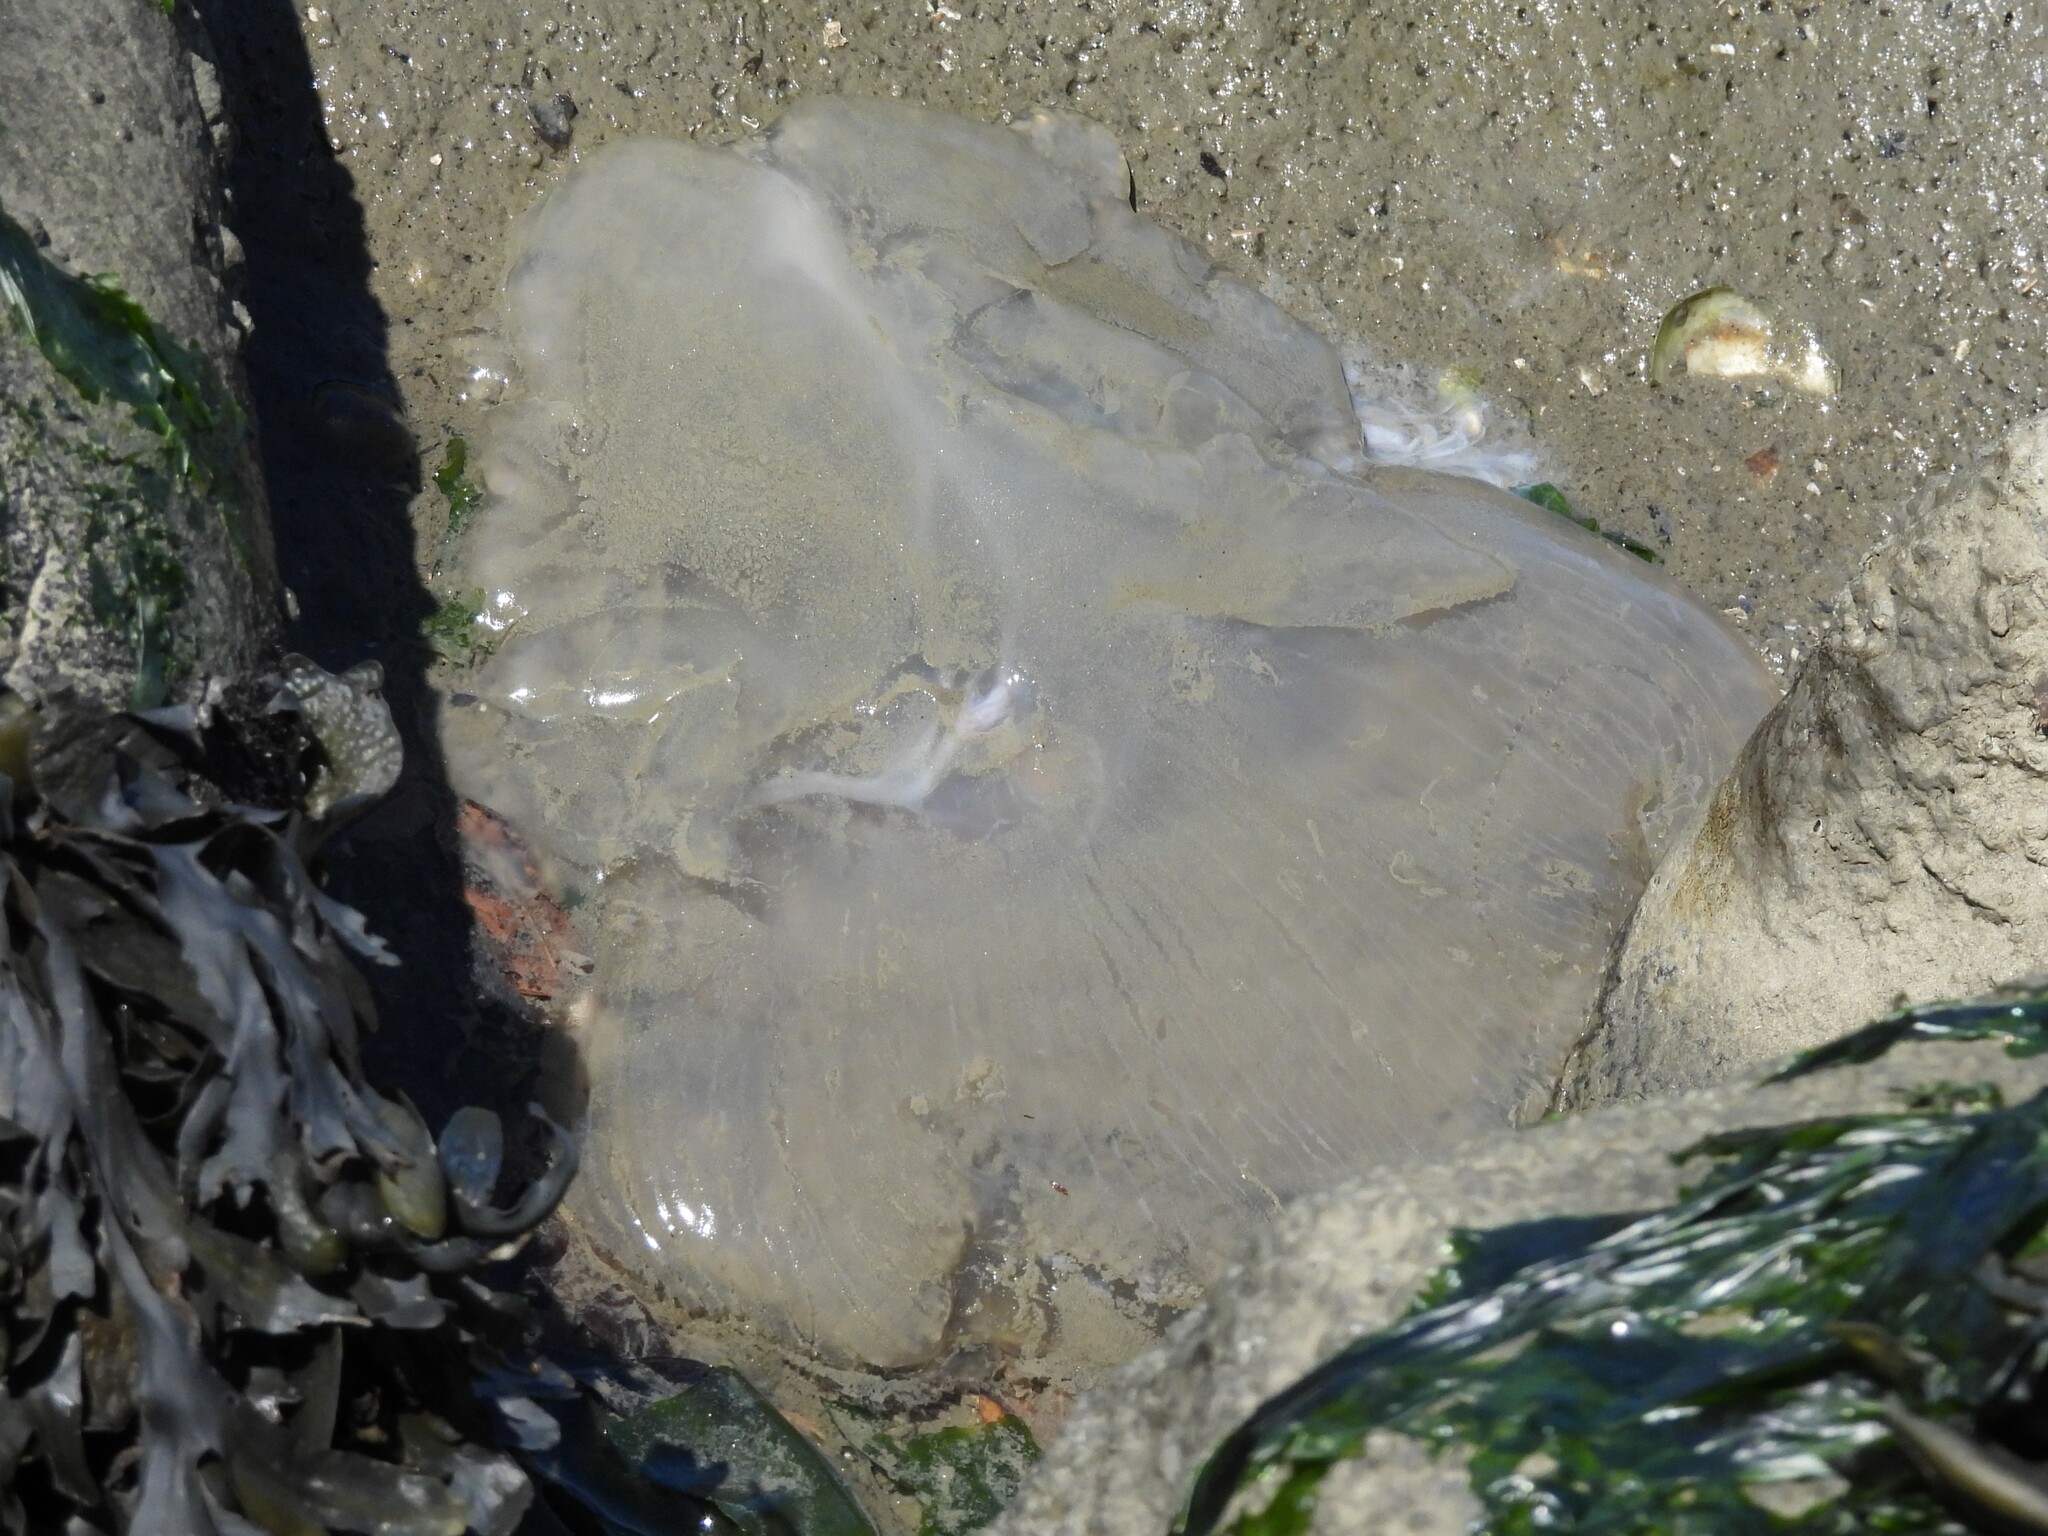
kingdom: Animalia
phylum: Cnidaria
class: Scyphozoa
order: Semaeostomeae
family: Ulmaridae
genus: Aurelia
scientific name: Aurelia labiata
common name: Pacific moon jelly
